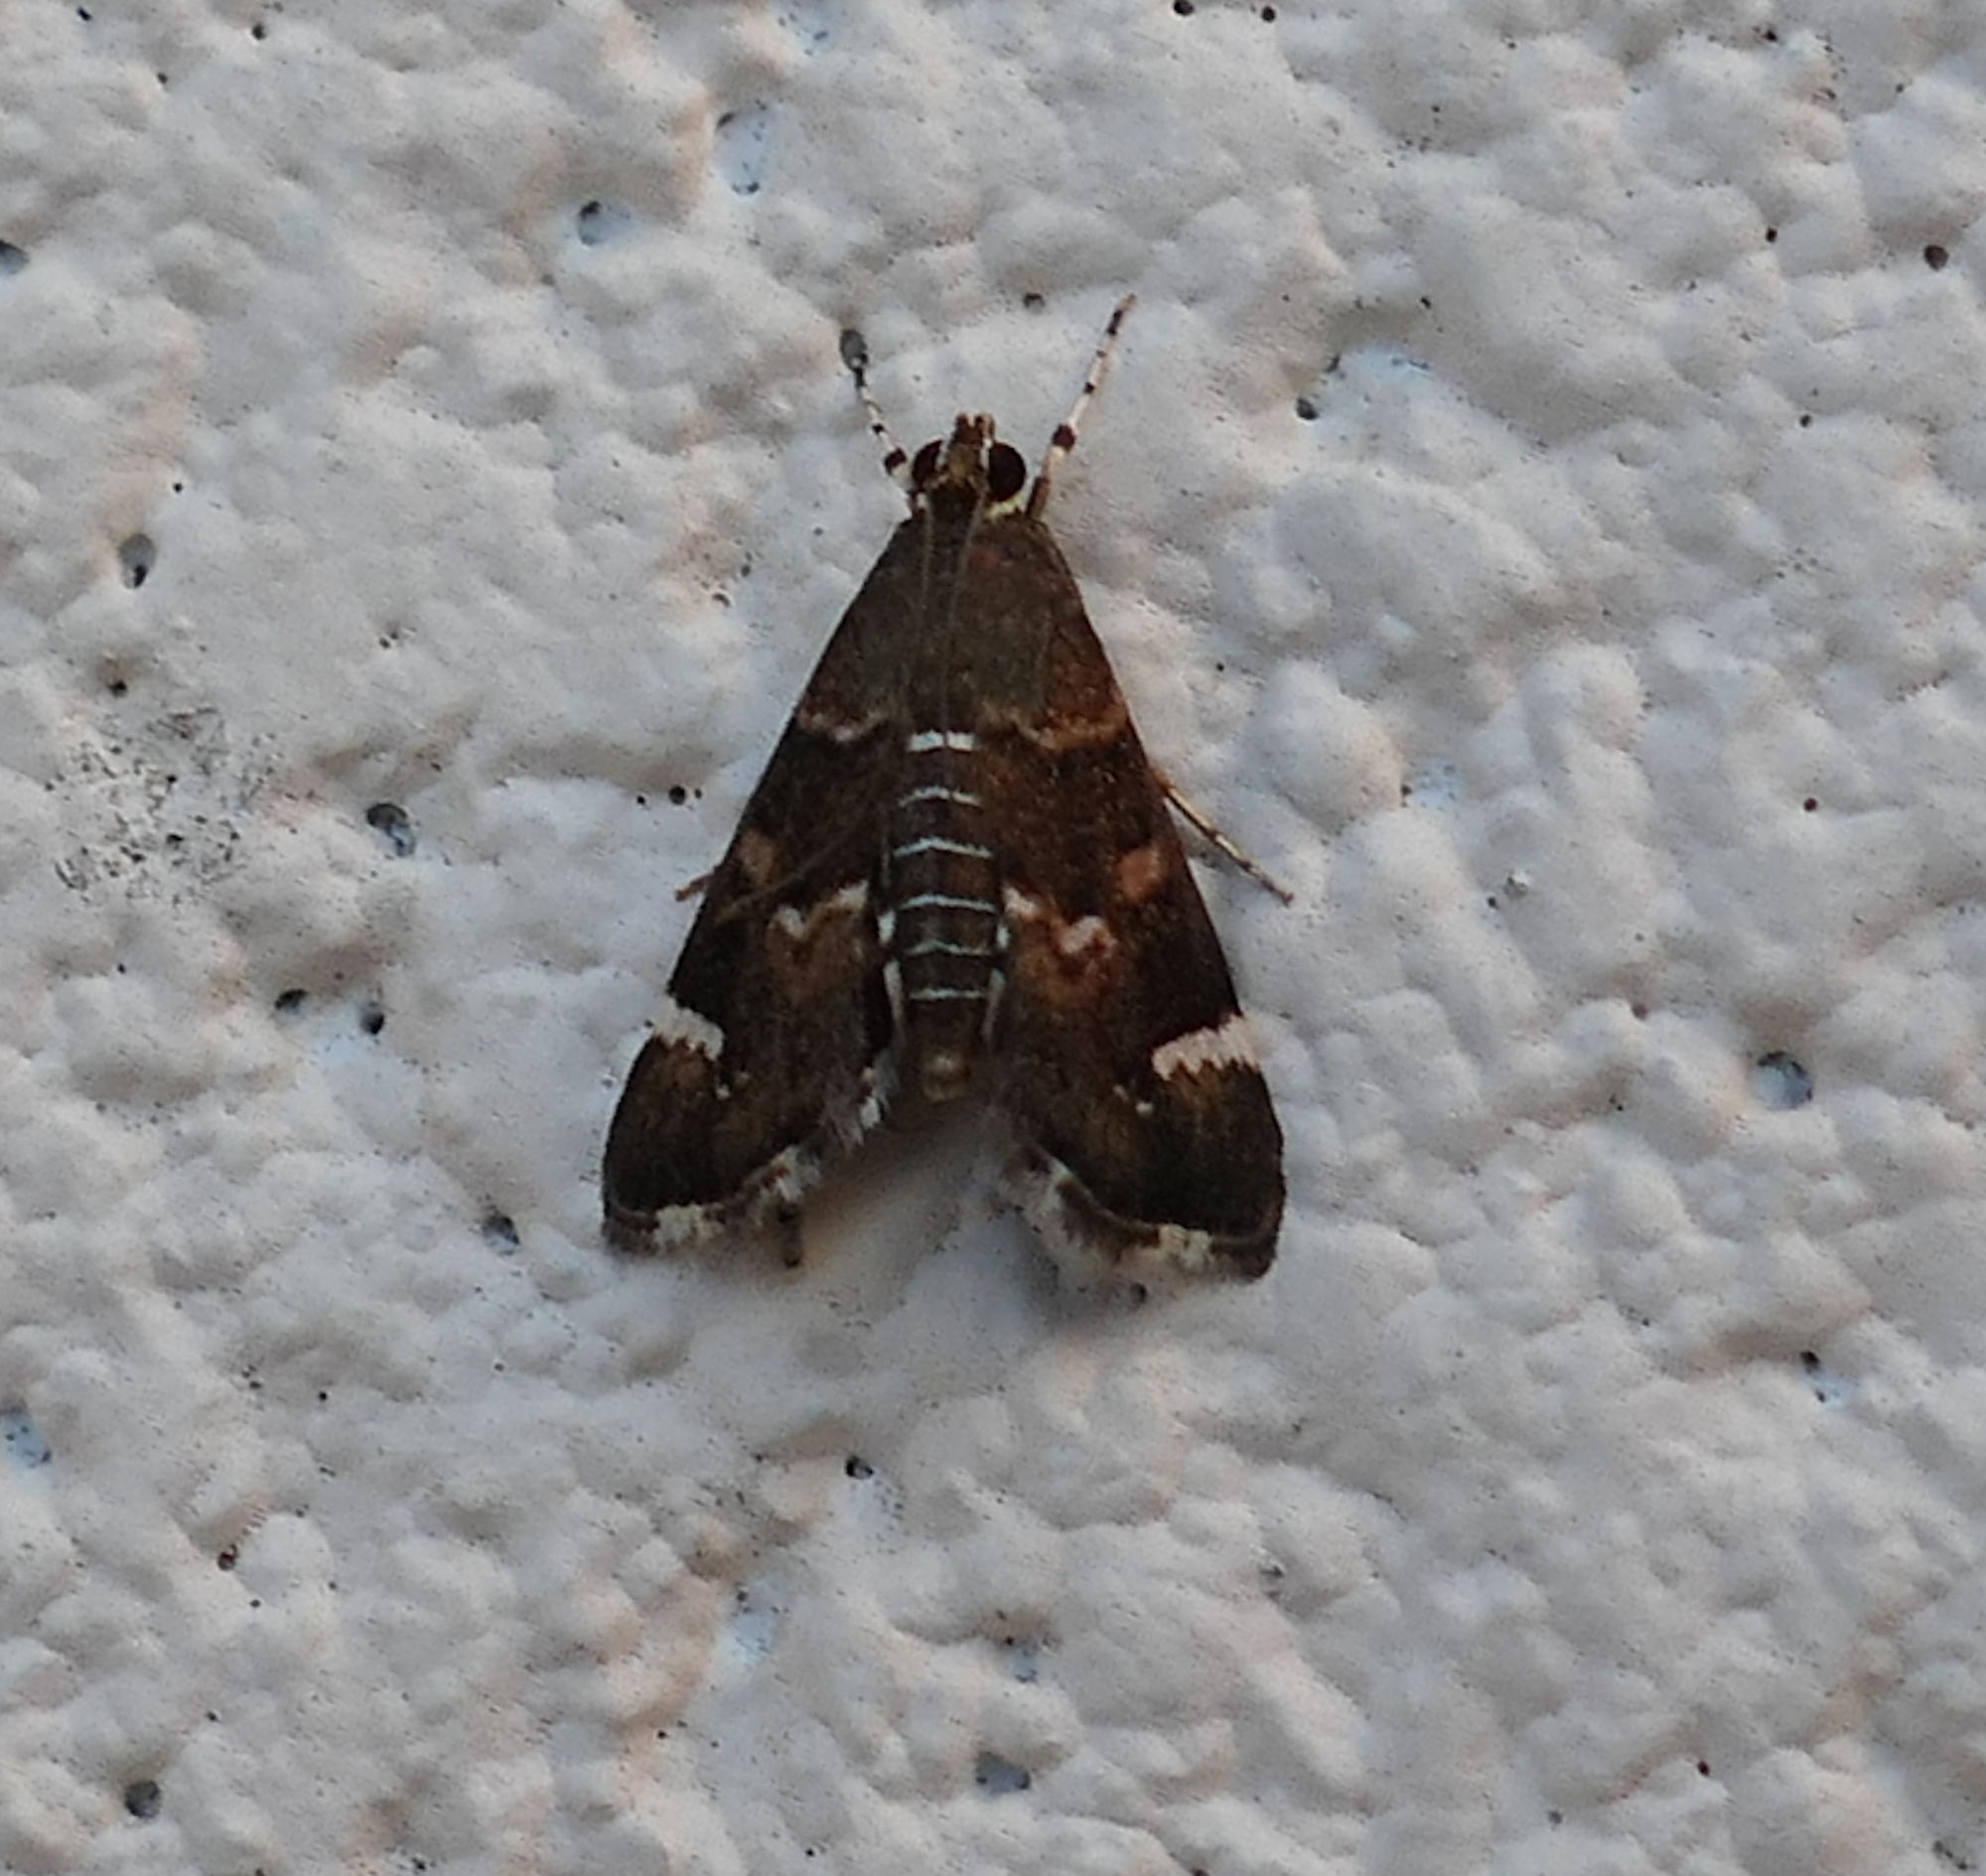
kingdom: Animalia
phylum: Arthropoda
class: Insecta
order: Lepidoptera
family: Crambidae
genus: Hymenia
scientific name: Hymenia perspectalis
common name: Spotted beet webworm
